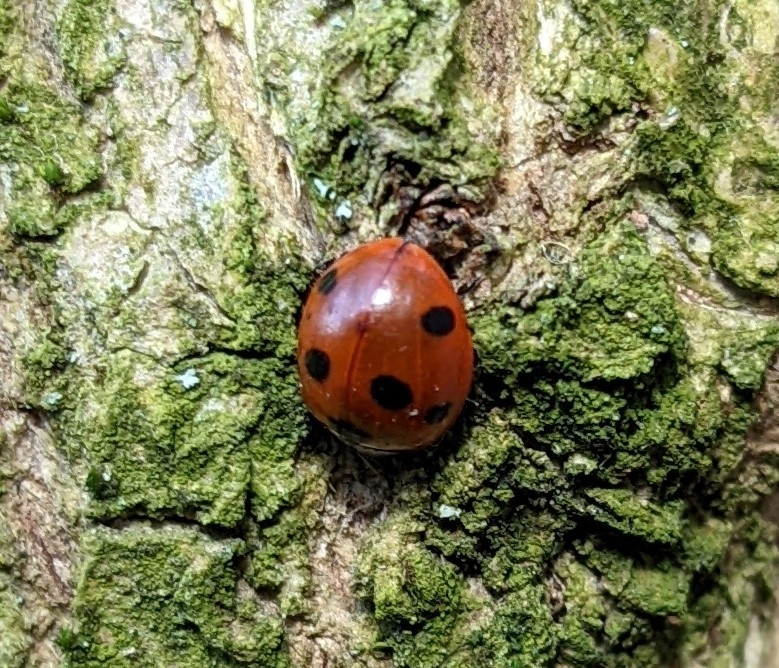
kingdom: Animalia
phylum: Arthropoda
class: Insecta
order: Coleoptera
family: Coccinellidae
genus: Coccinella
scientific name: Coccinella septempunctata
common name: Sevenspotted lady beetle
